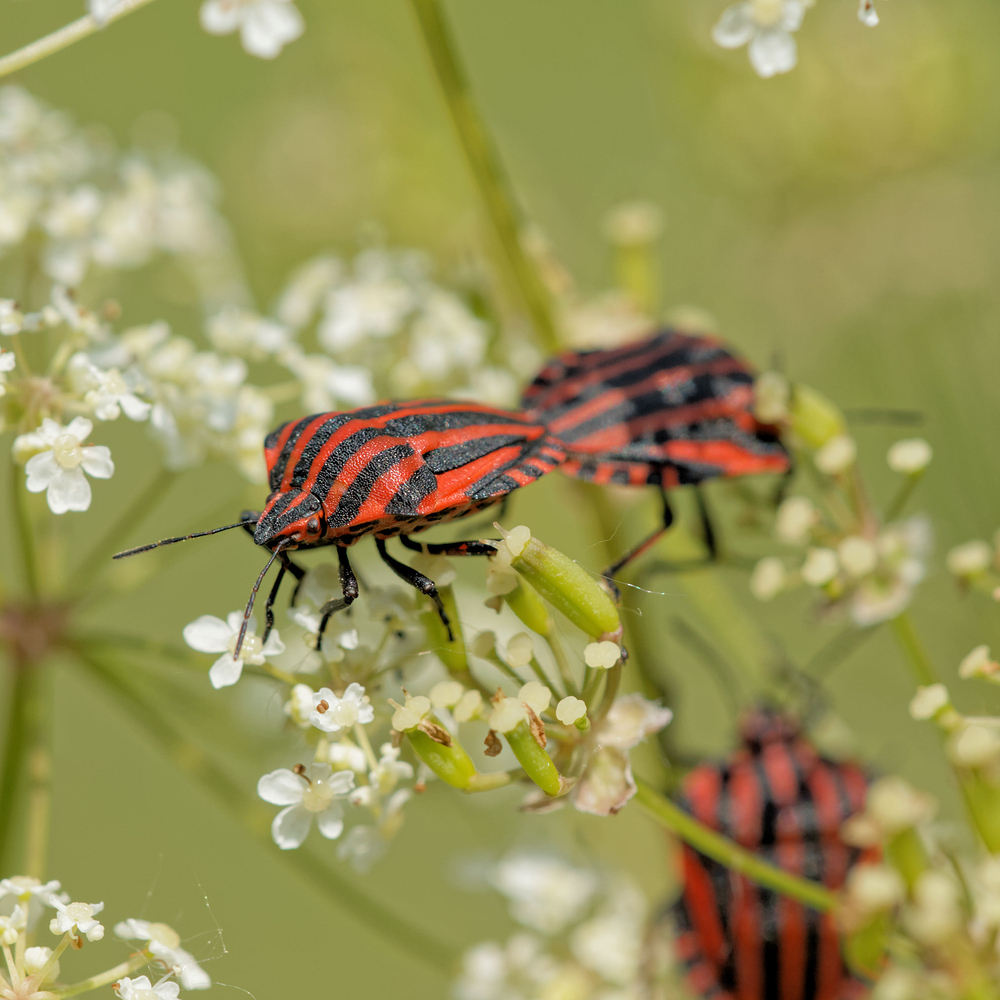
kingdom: Animalia
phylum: Arthropoda
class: Insecta
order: Hemiptera
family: Pentatomidae
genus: Graphosoma
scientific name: Graphosoma italicum
